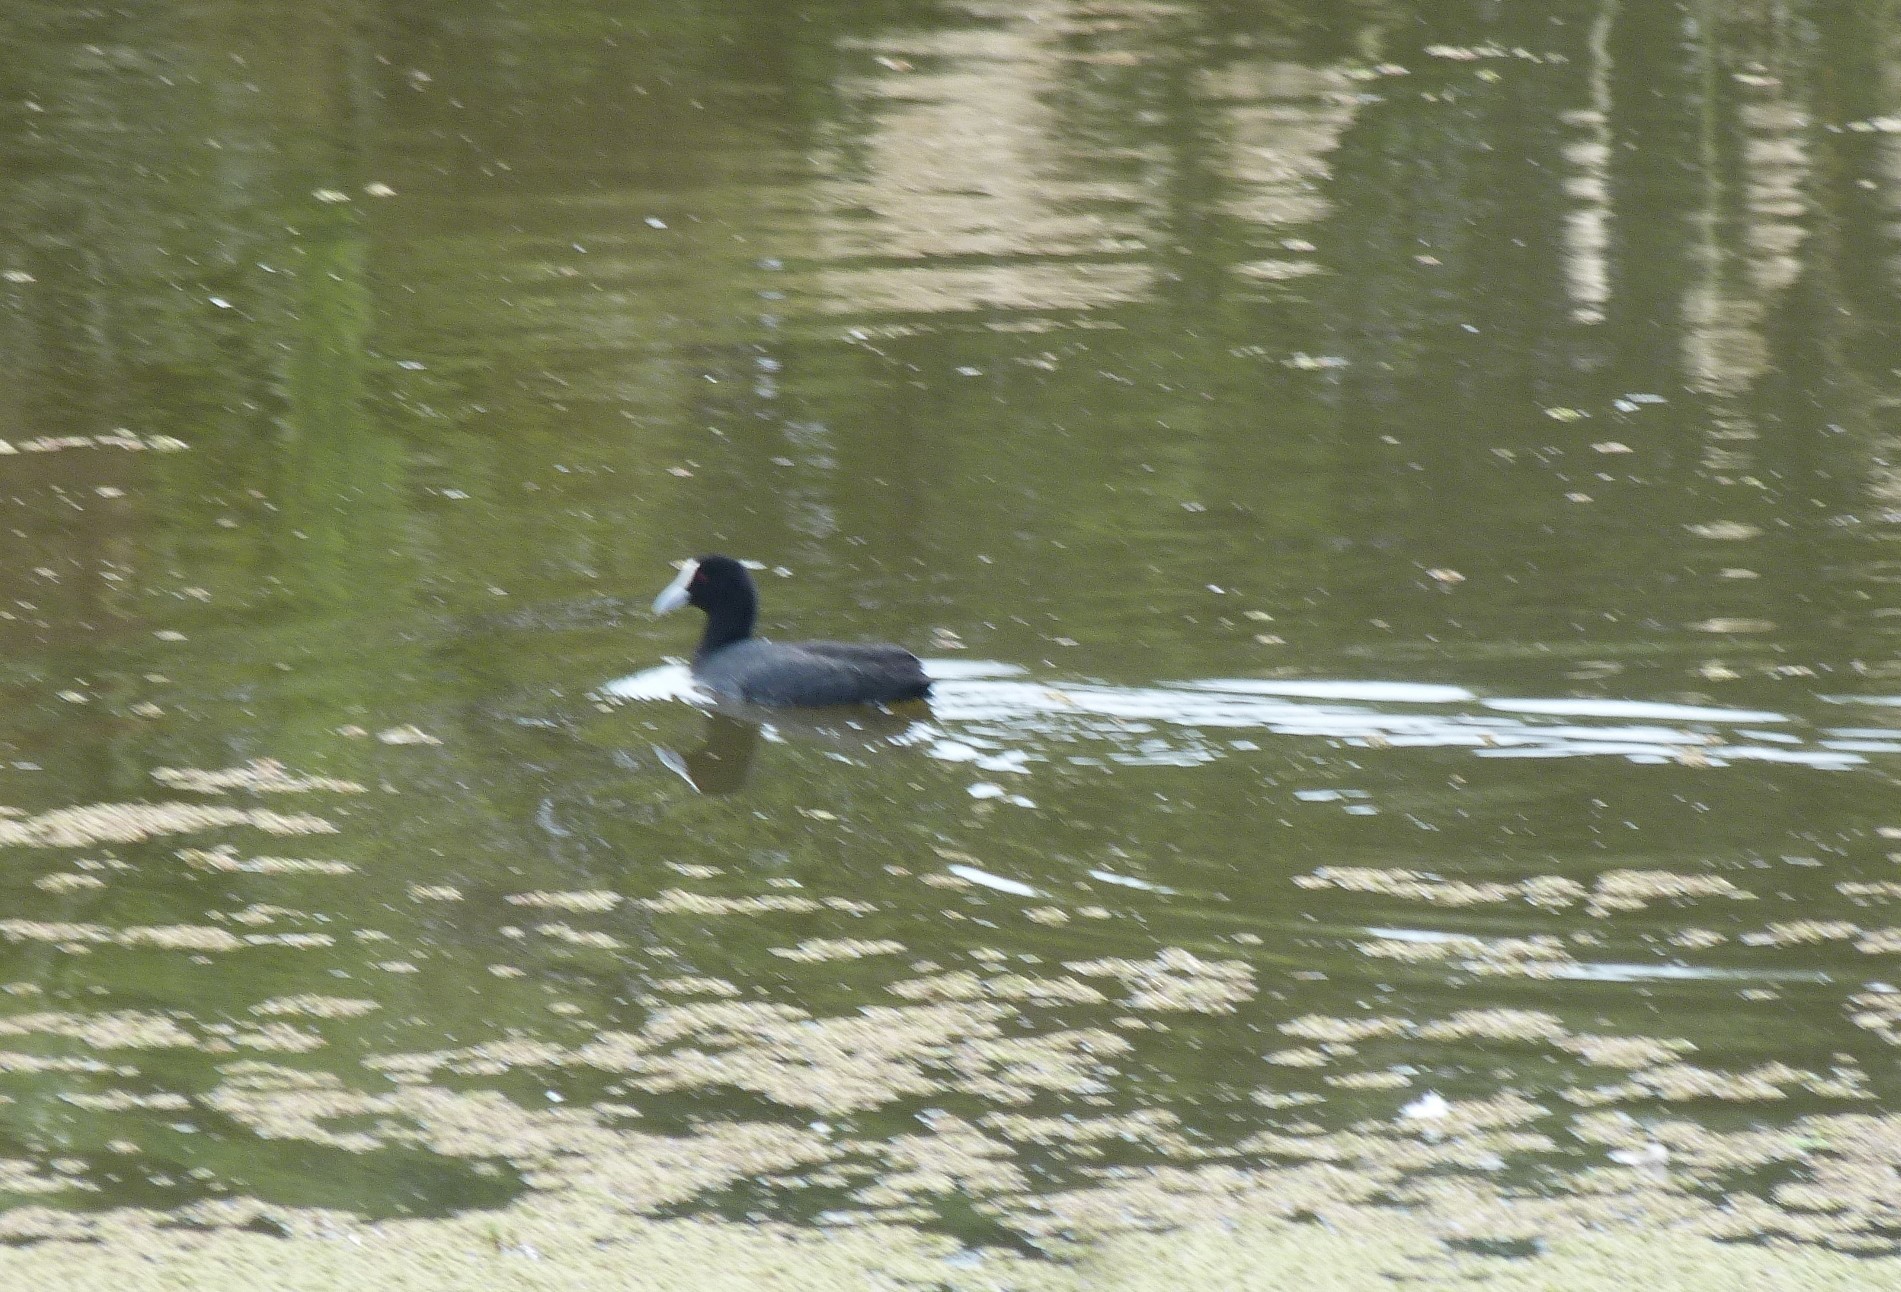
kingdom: Animalia
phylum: Chordata
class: Aves
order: Gruiformes
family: Rallidae
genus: Fulica
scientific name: Fulica atra
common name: Eurasian coot
